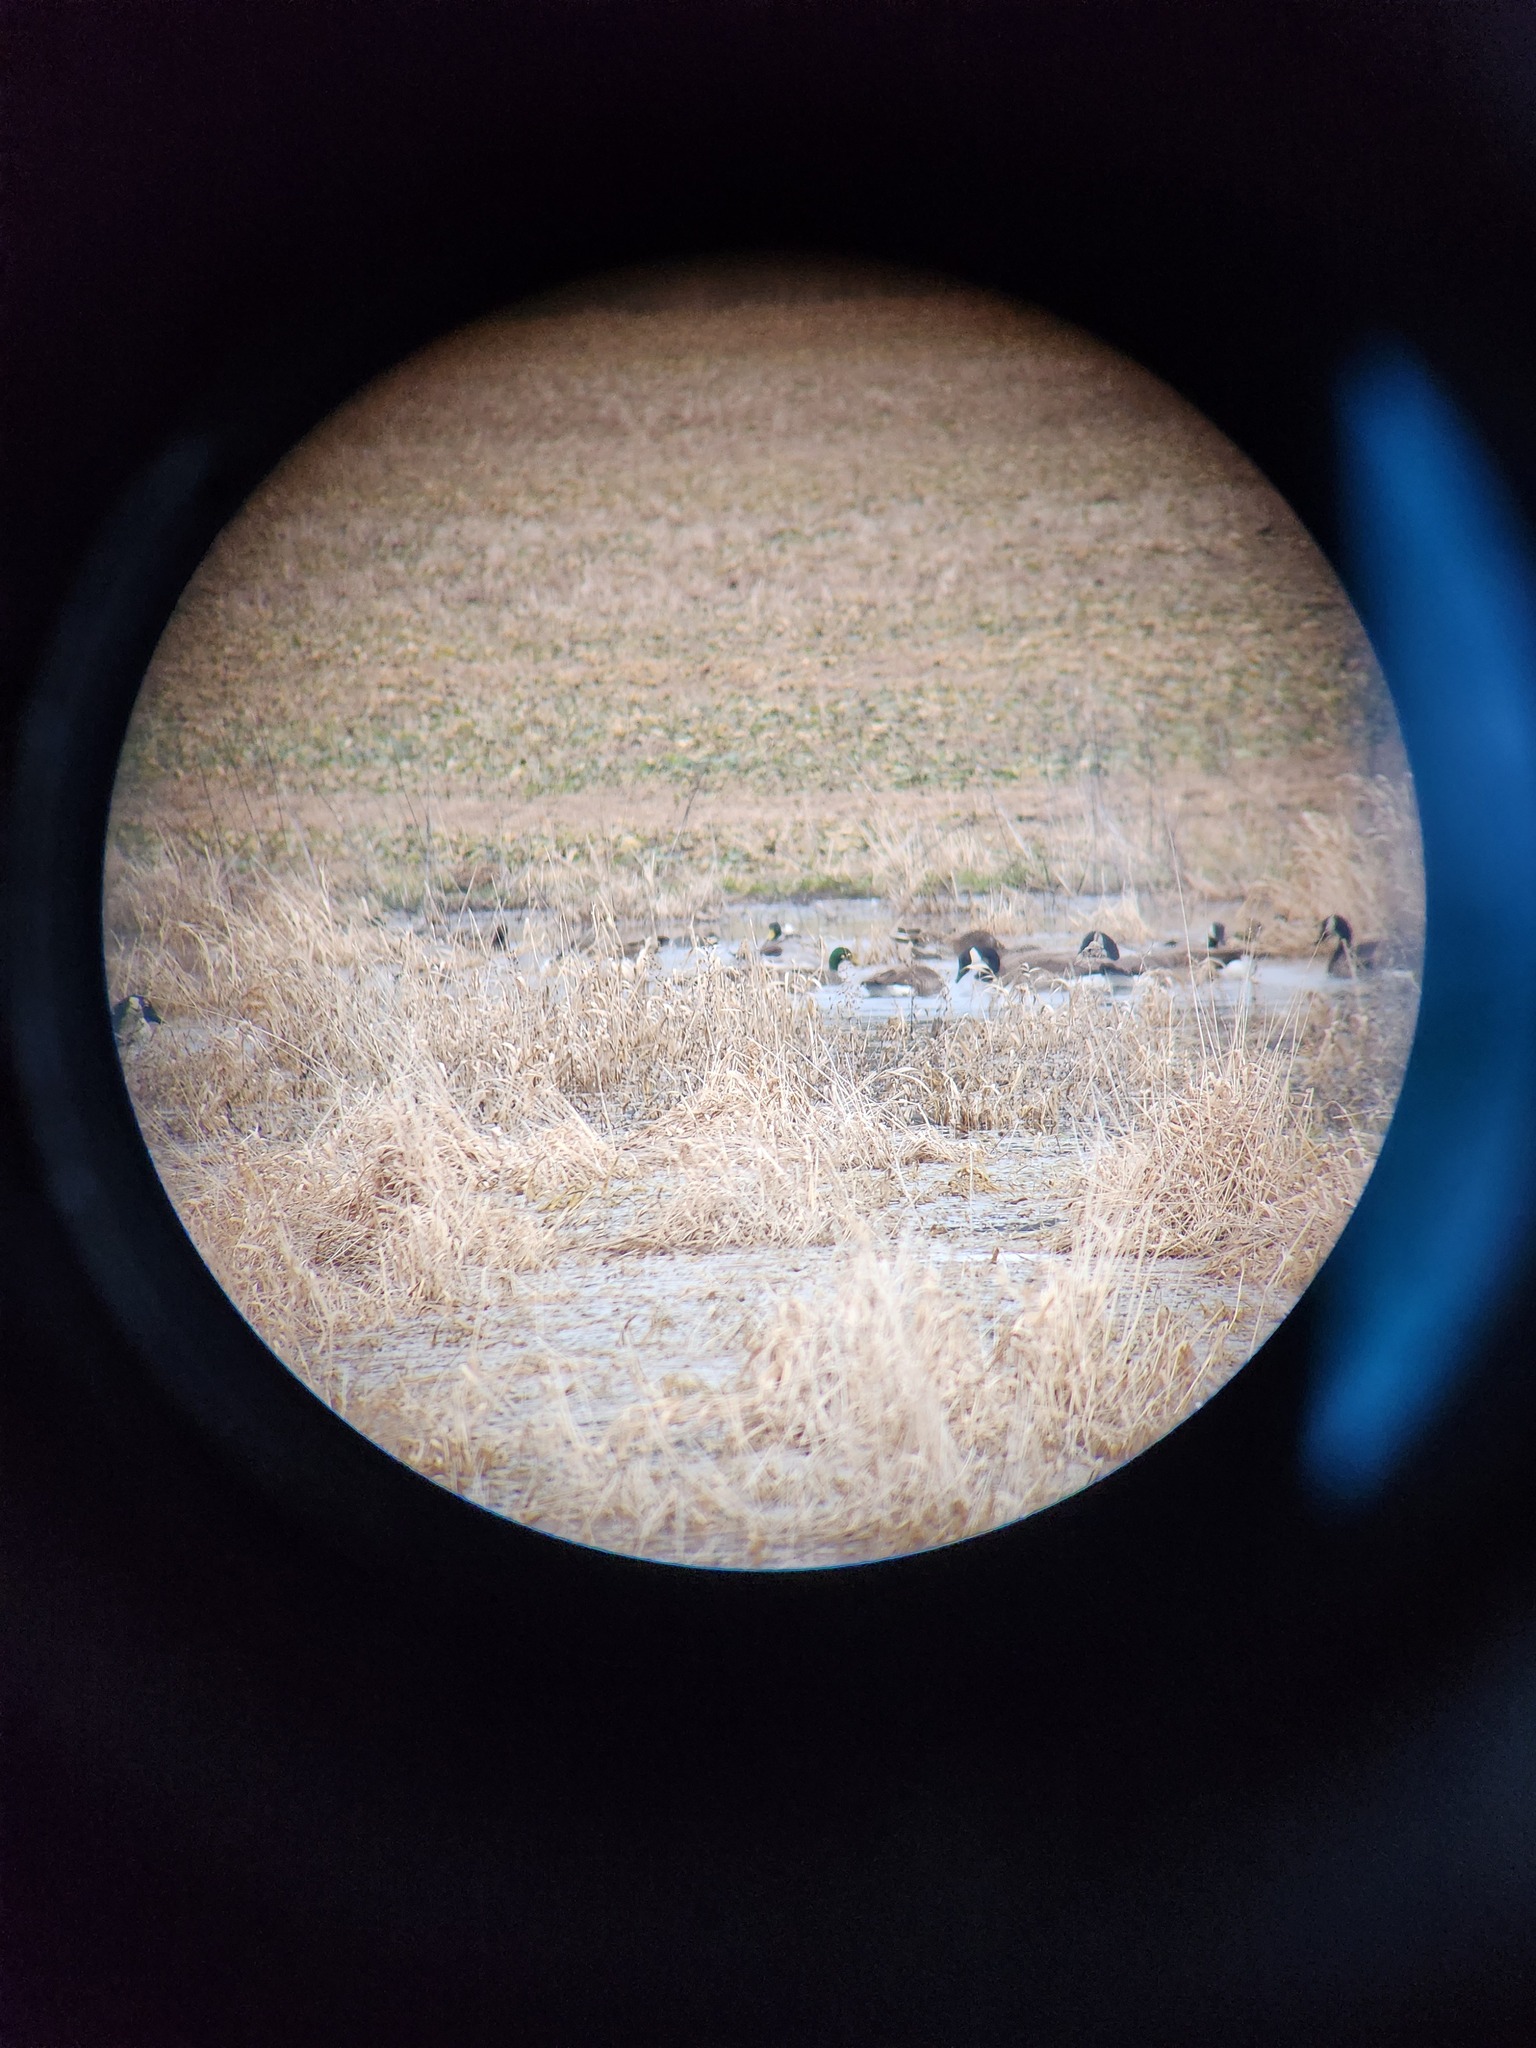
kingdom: Animalia
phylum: Chordata
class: Aves
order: Anseriformes
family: Anatidae
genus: Anas
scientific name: Anas platyrhynchos
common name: Mallard
